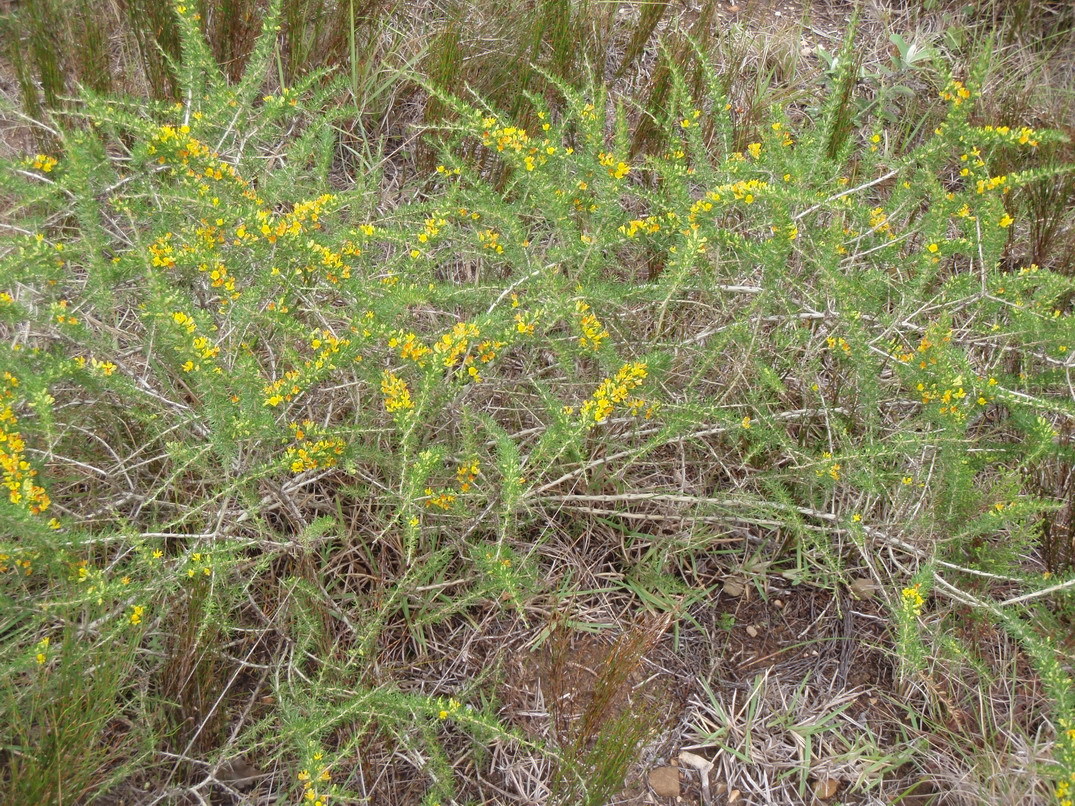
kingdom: Plantae
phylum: Tracheophyta
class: Magnoliopsida
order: Fabales
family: Fabaceae
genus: Aspalathus
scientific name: Aspalathus spinosa
